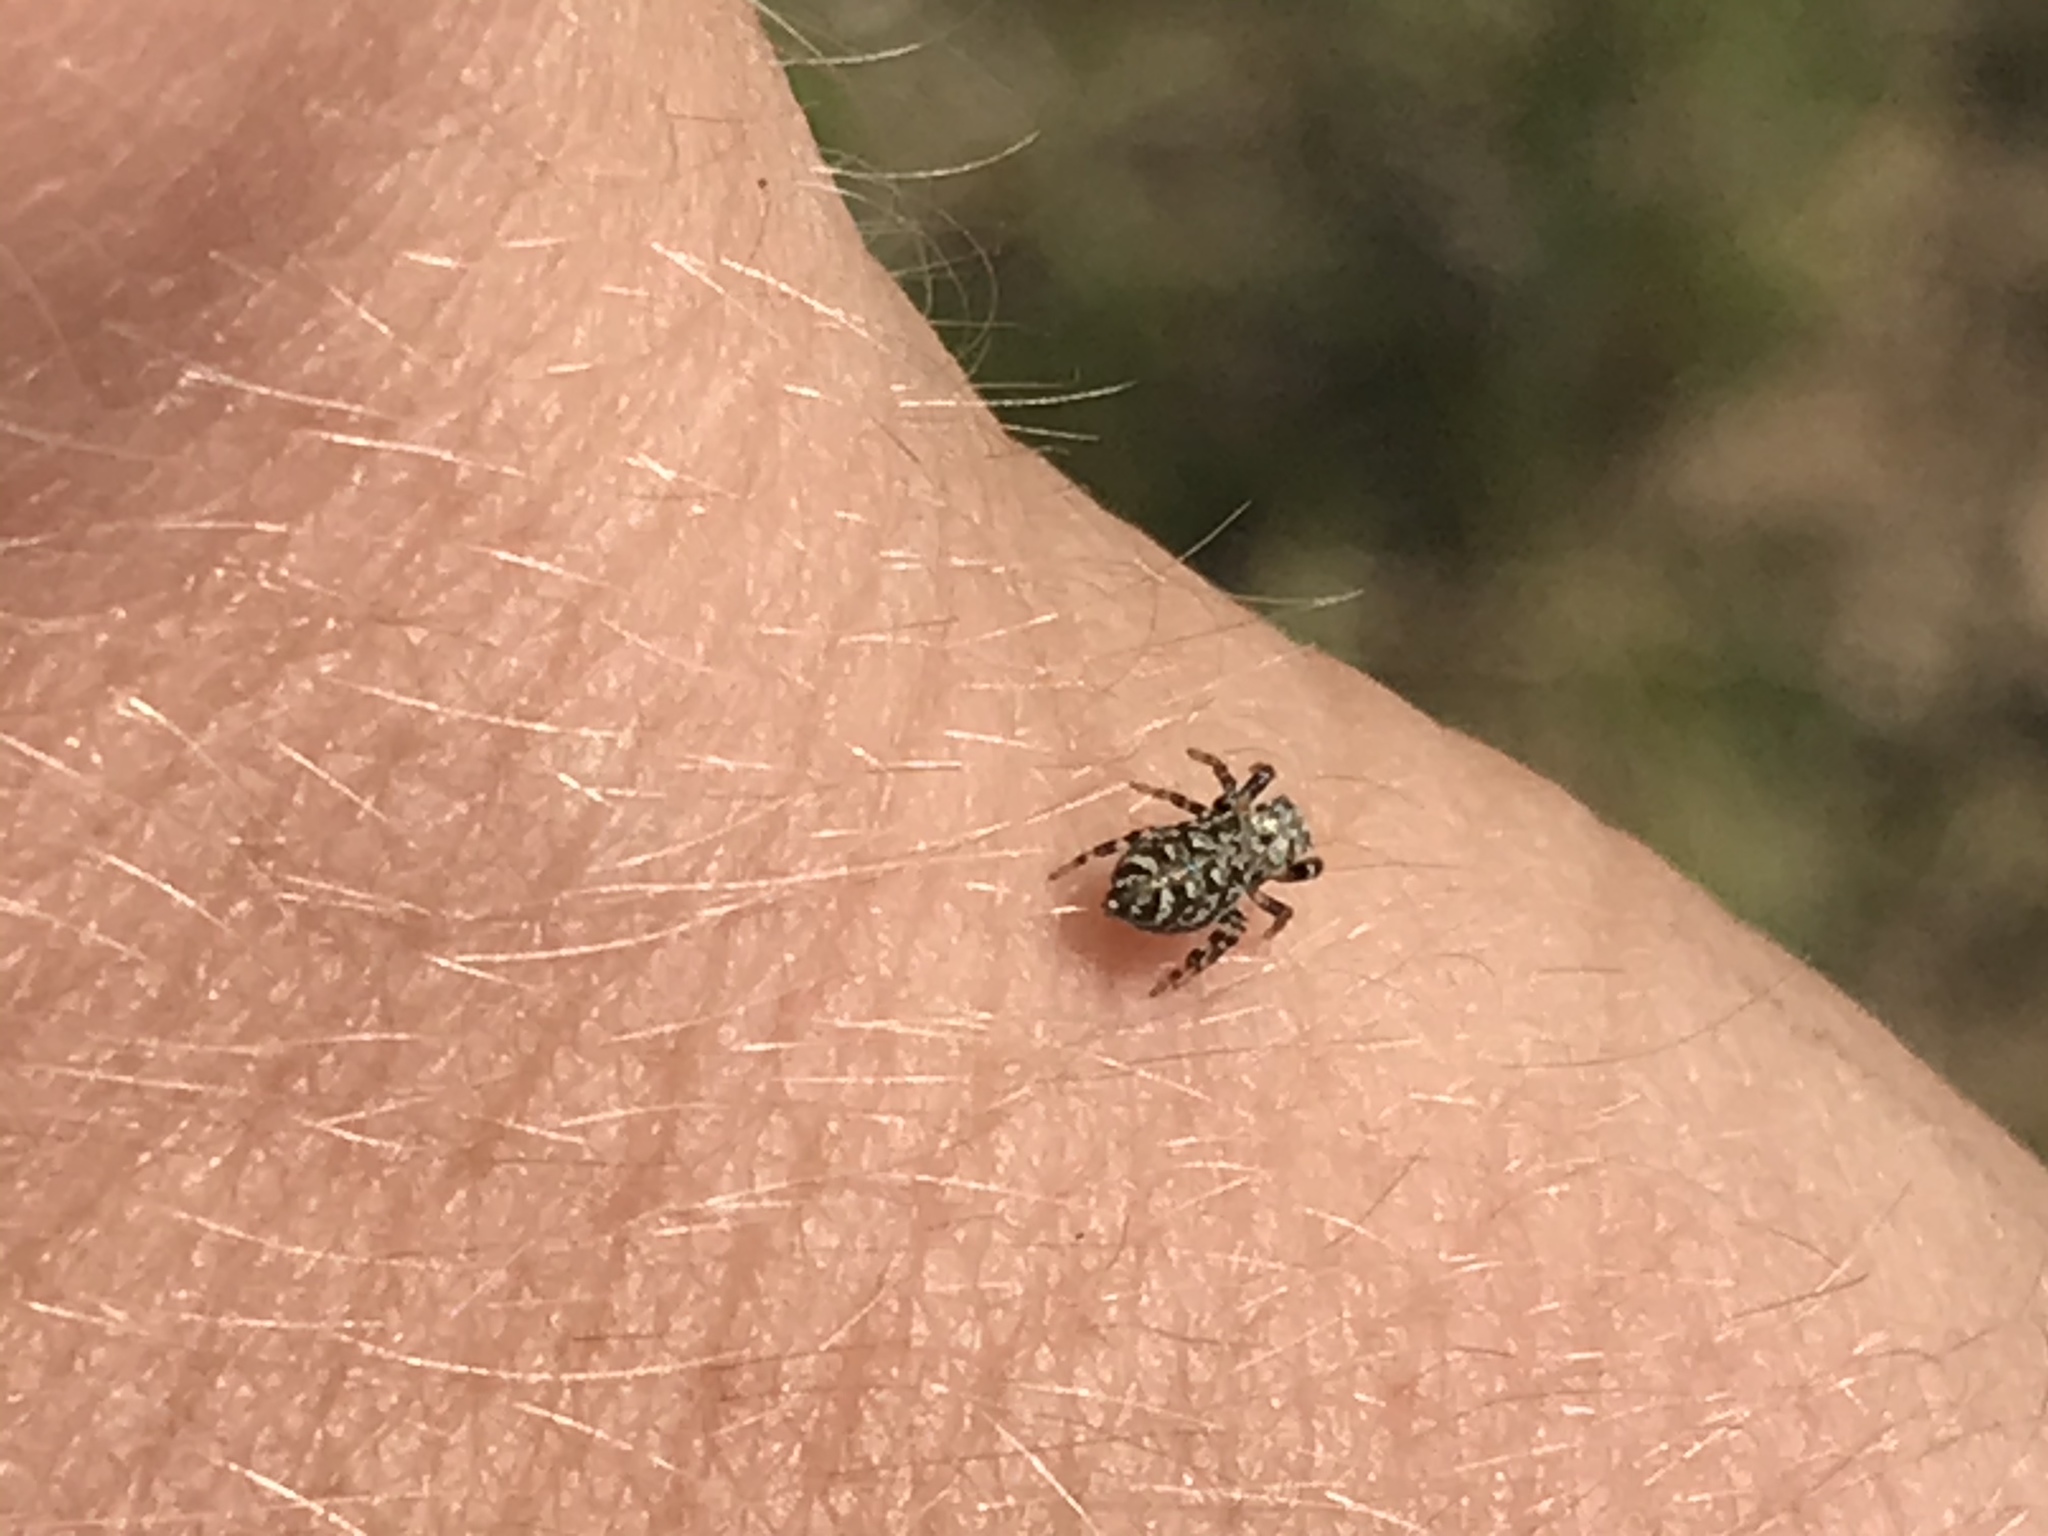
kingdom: Animalia
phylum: Arthropoda
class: Arachnida
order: Araneae
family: Salticidae
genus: Pelegrina
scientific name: Pelegrina galathea
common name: Jumping spiders
